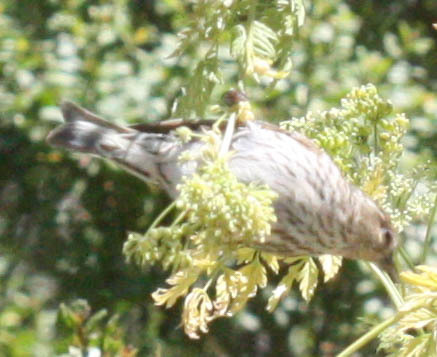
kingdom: Animalia
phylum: Chordata
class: Aves
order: Passeriformes
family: Fringillidae
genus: Spinus
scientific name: Spinus pinus
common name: Pine siskin
